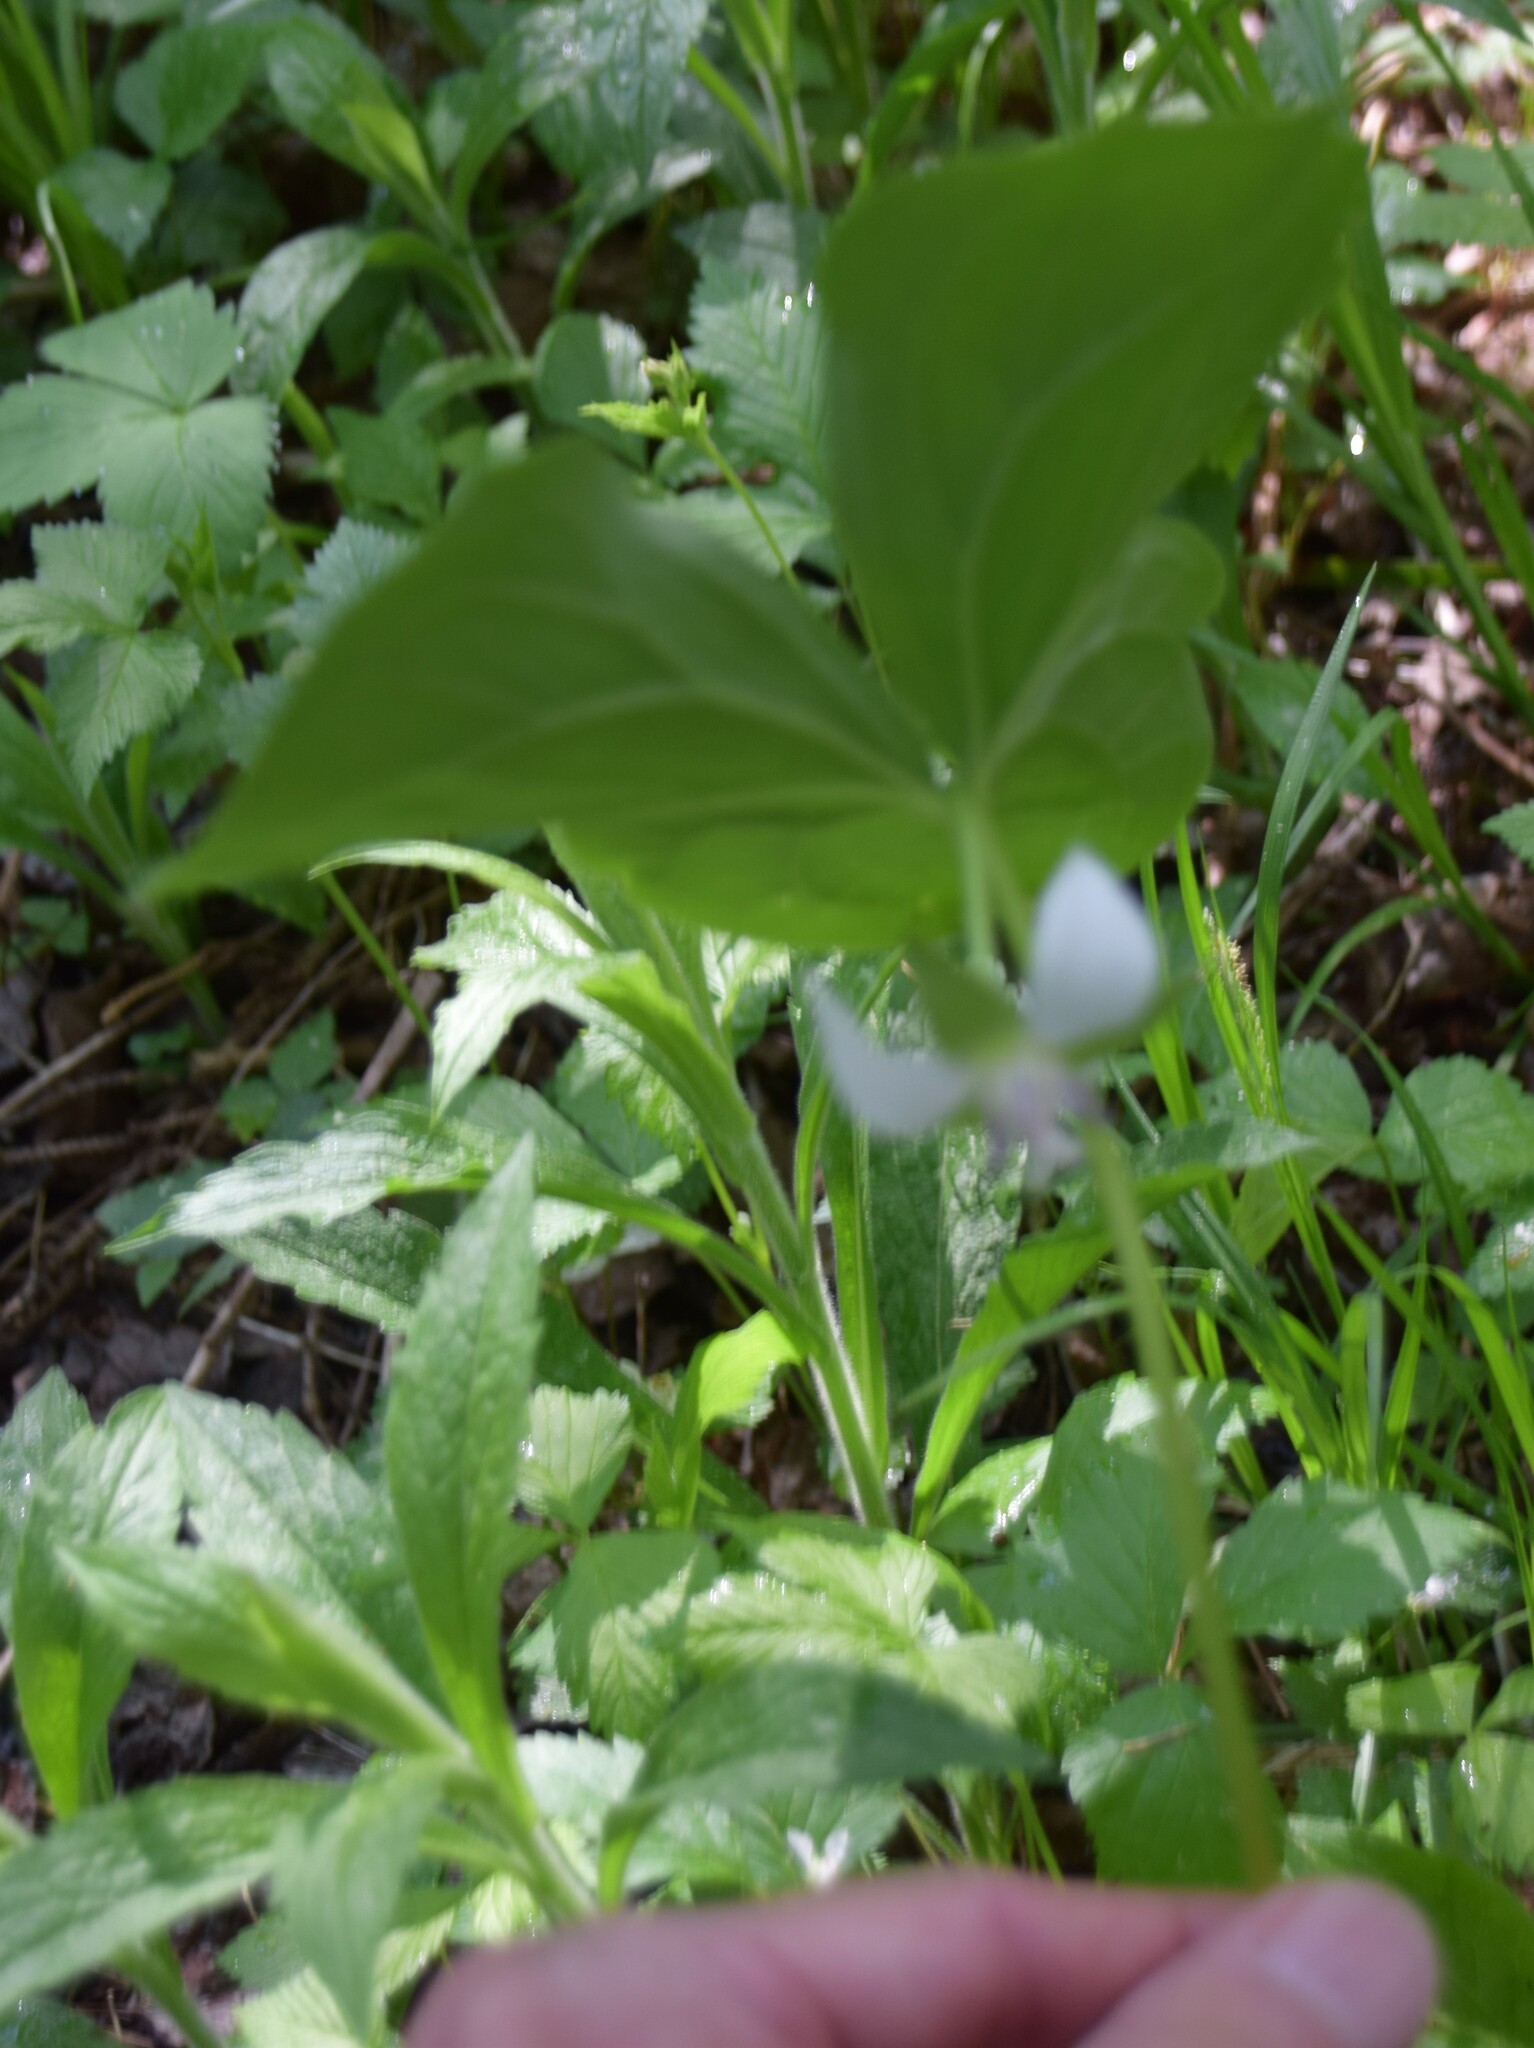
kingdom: Plantae
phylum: Tracheophyta
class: Liliopsida
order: Liliales
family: Melanthiaceae
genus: Trillium
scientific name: Trillium cernuum
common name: Nodding trillium
